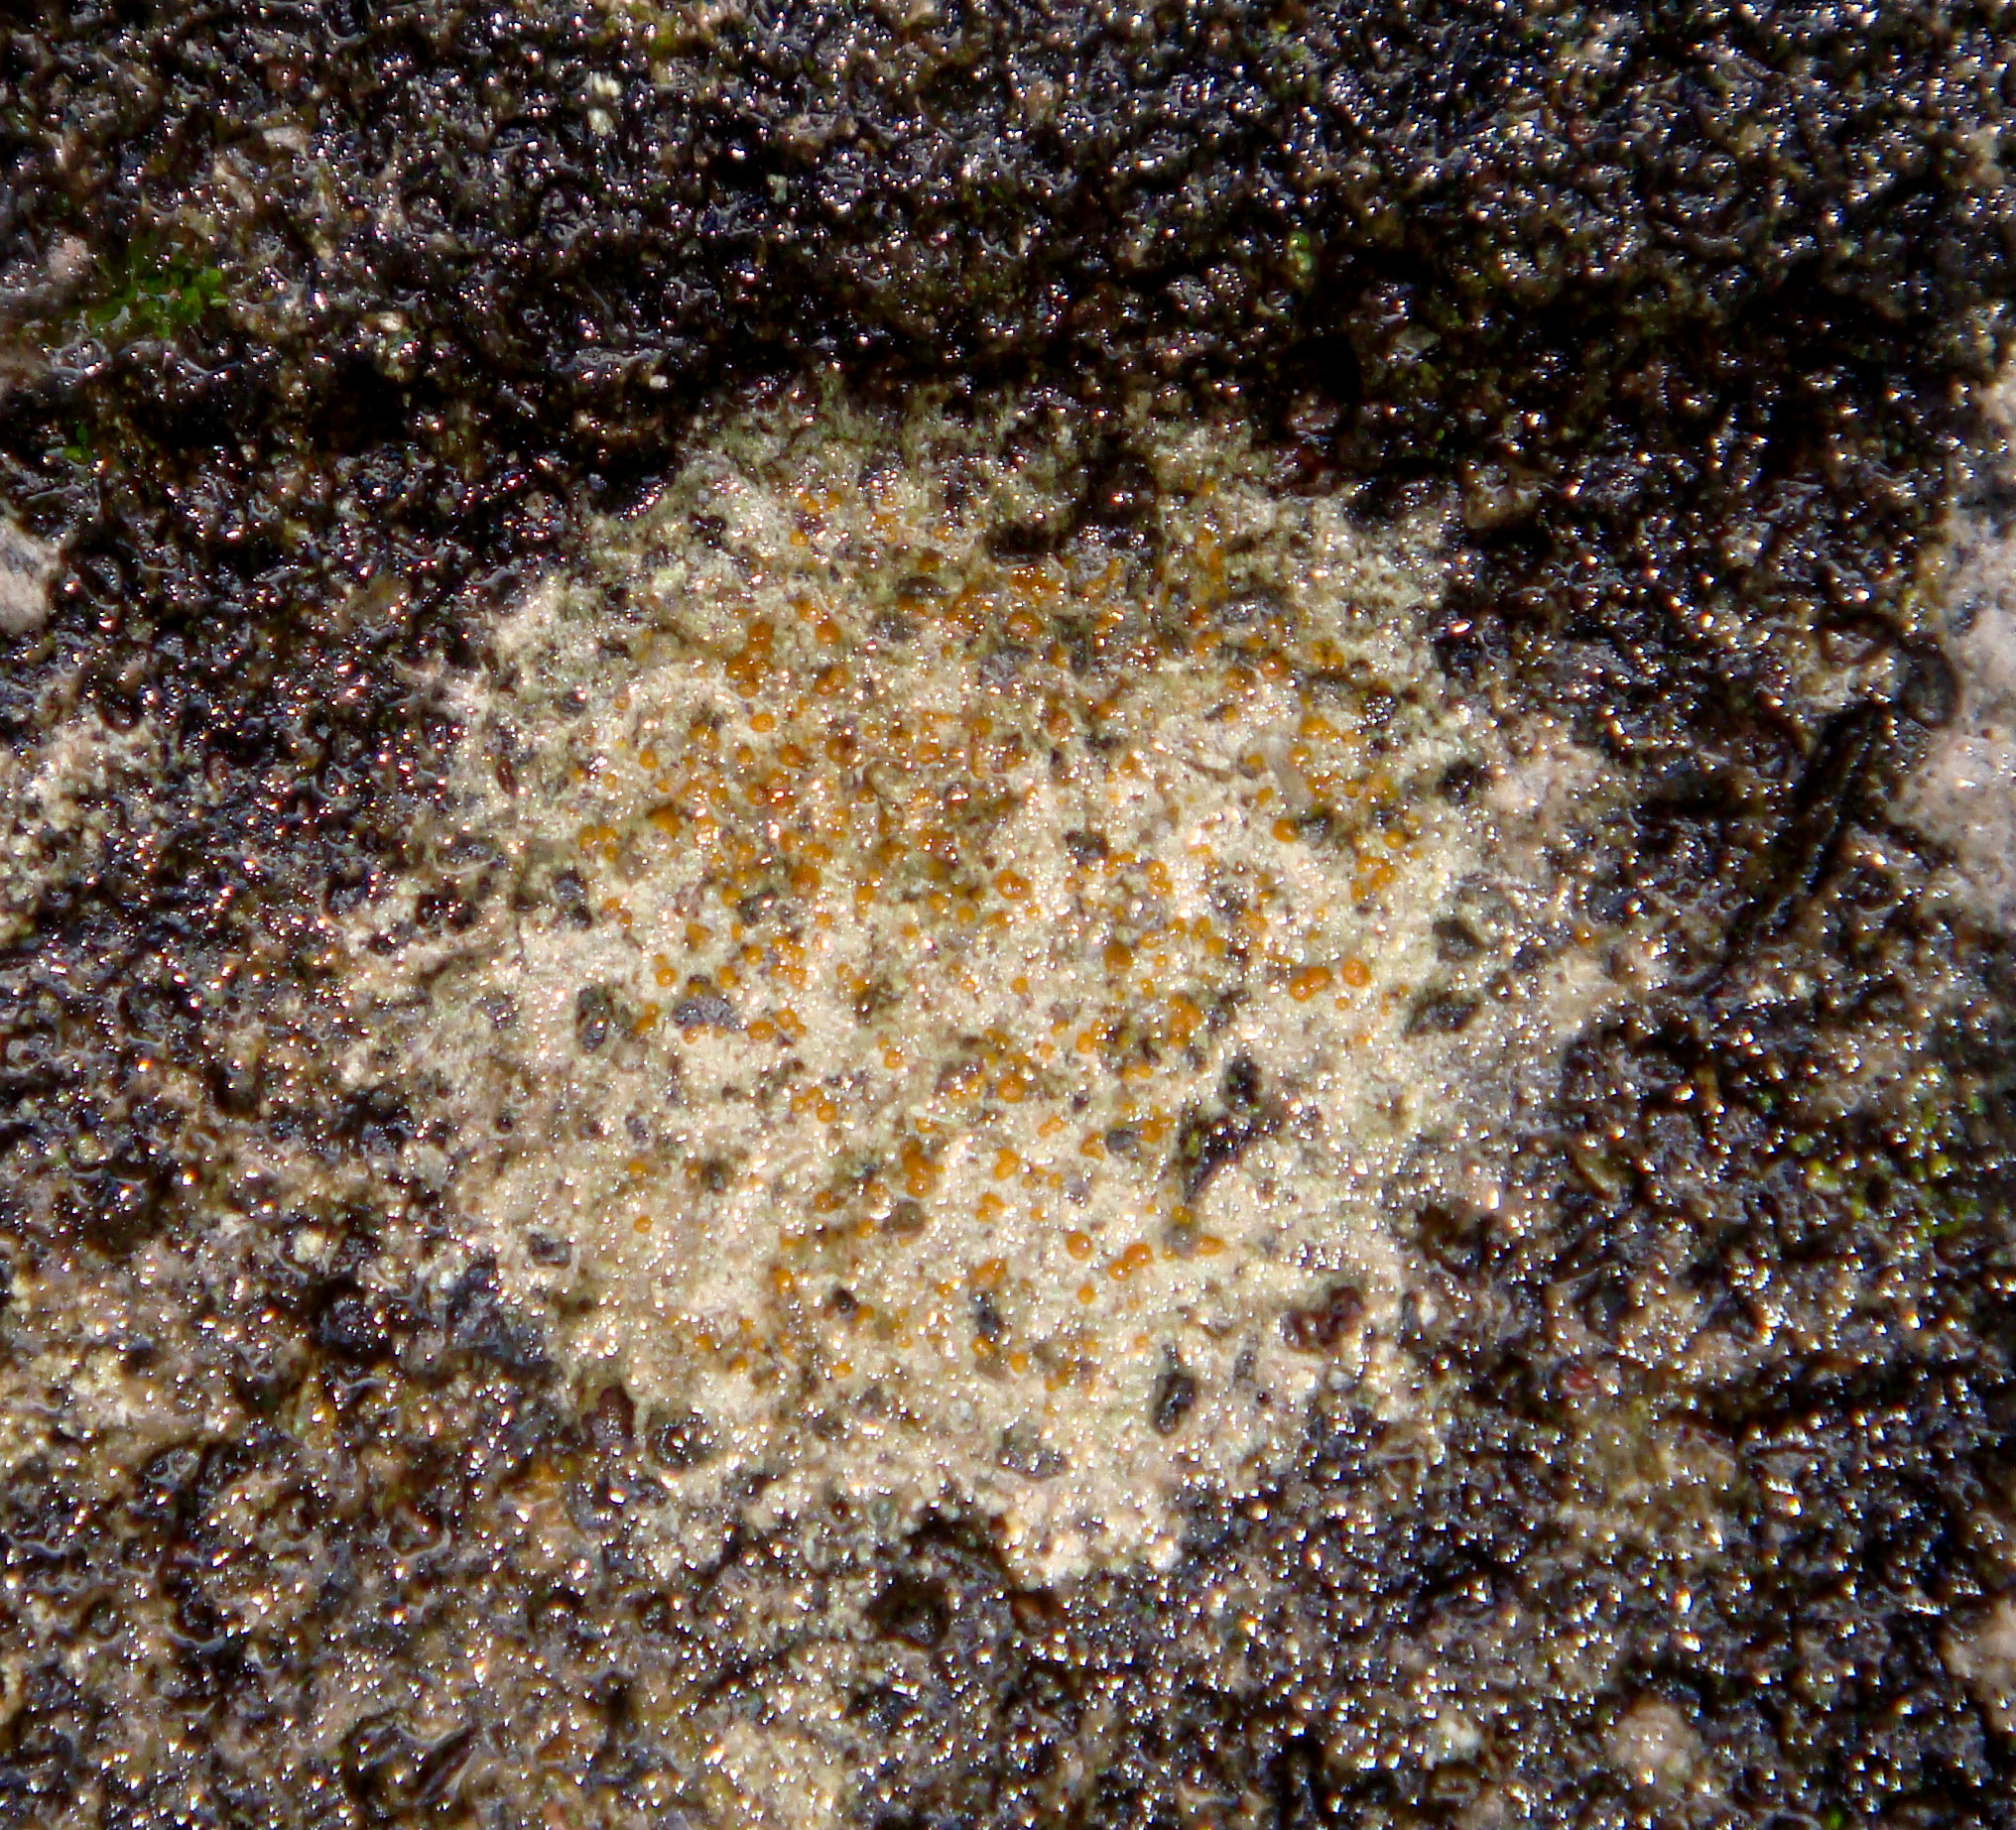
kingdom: Fungi
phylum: Ascomycota
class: Lecanoromycetes
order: Lecanorales
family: Psoraceae
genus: Protoblastenia
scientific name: Protoblastenia rupestris
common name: Chewing gum lichen
